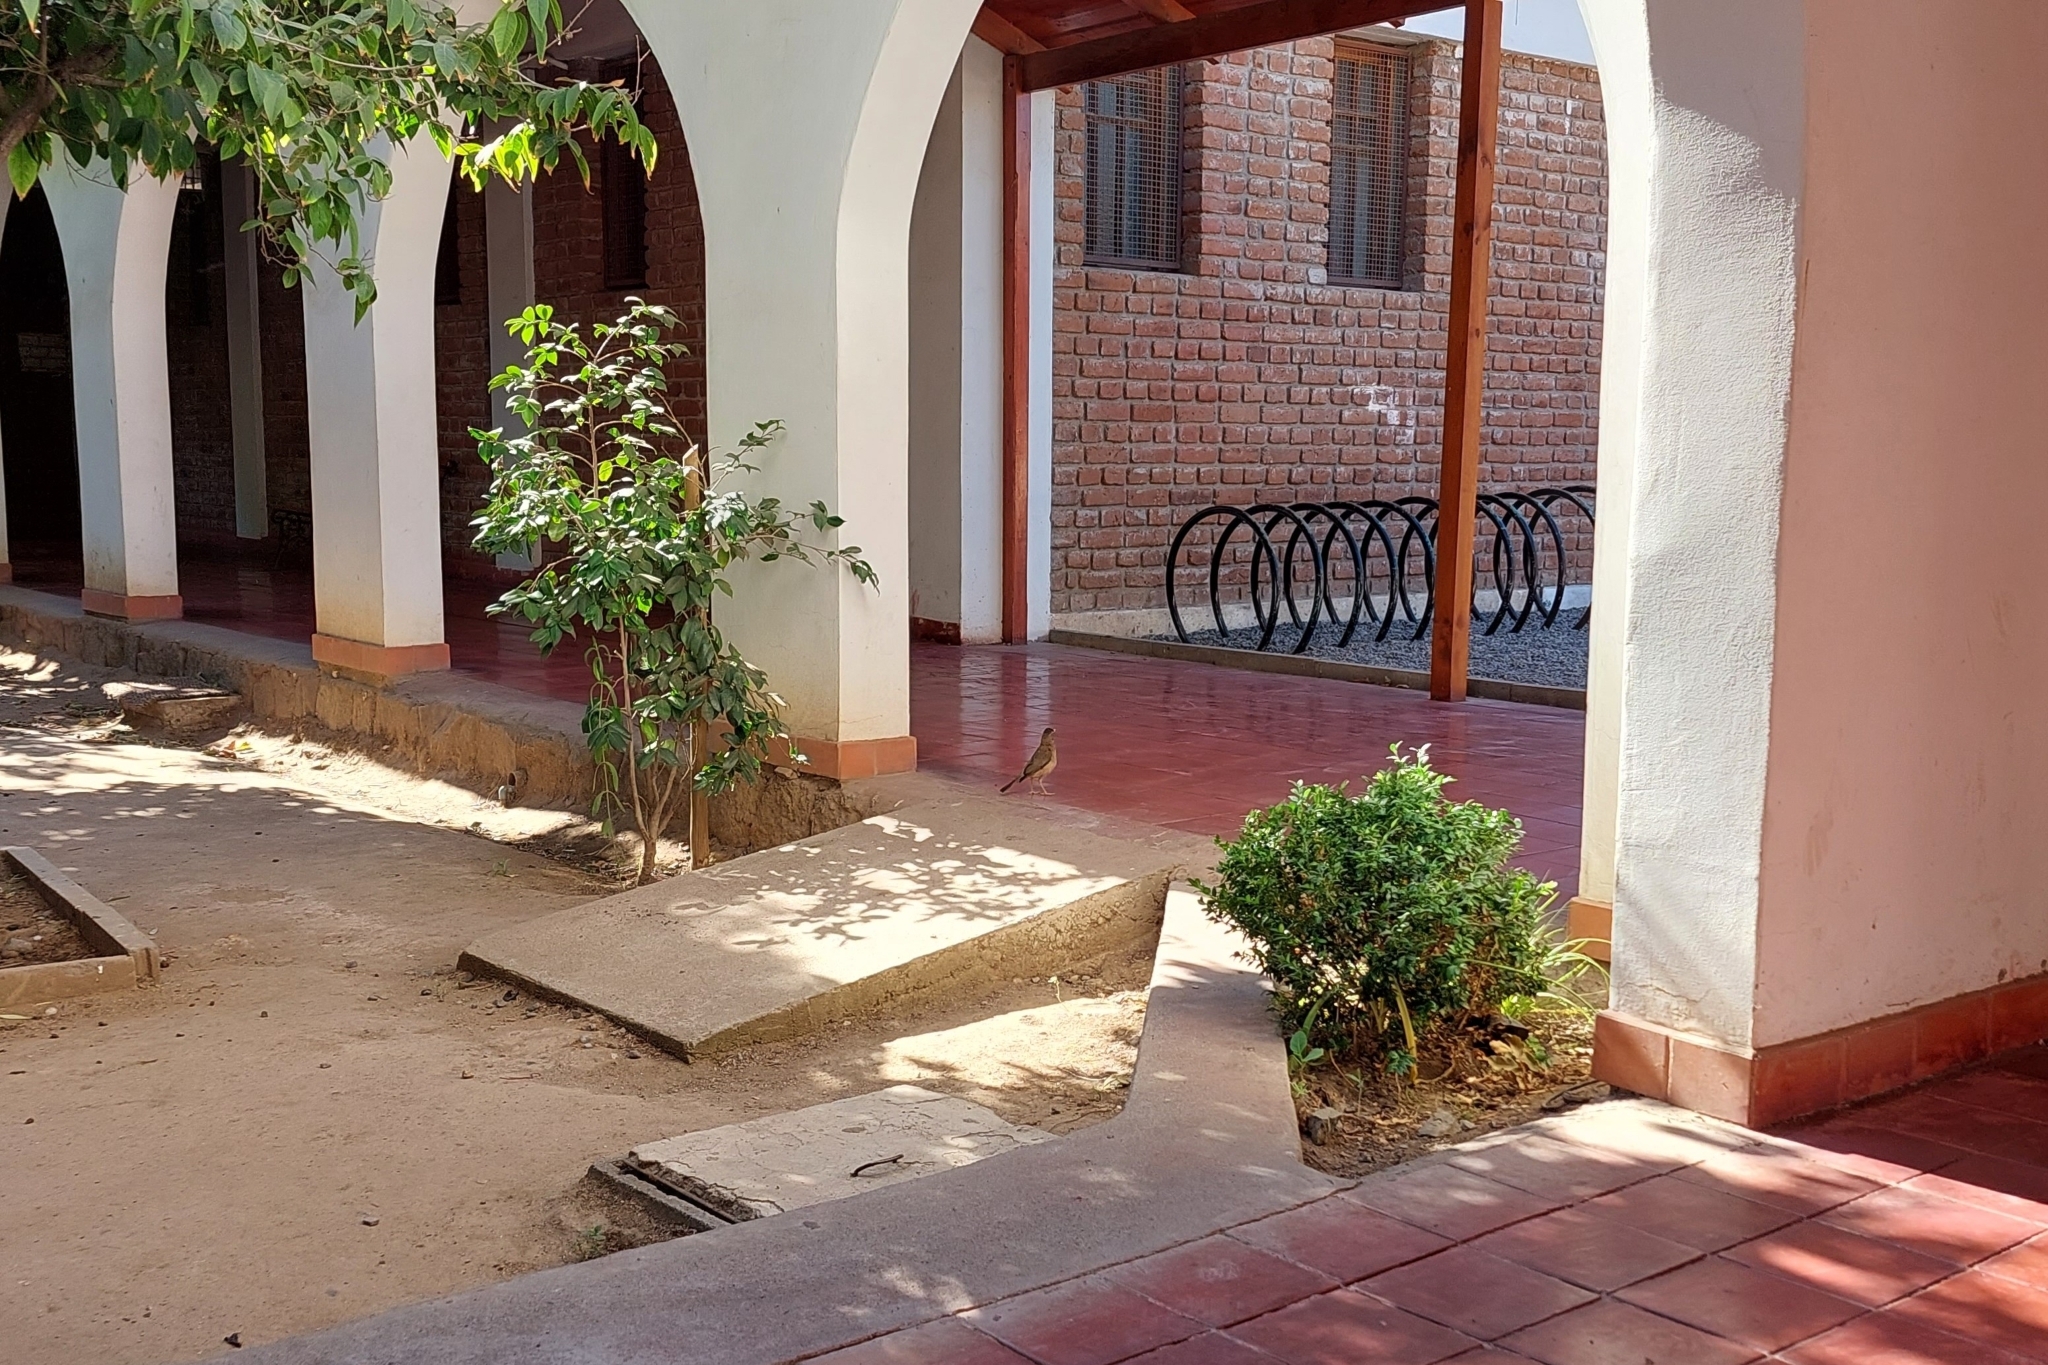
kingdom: Animalia
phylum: Chordata
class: Aves
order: Passeriformes
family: Turdidae
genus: Turdus
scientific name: Turdus falcklandii
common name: Austral thrush
